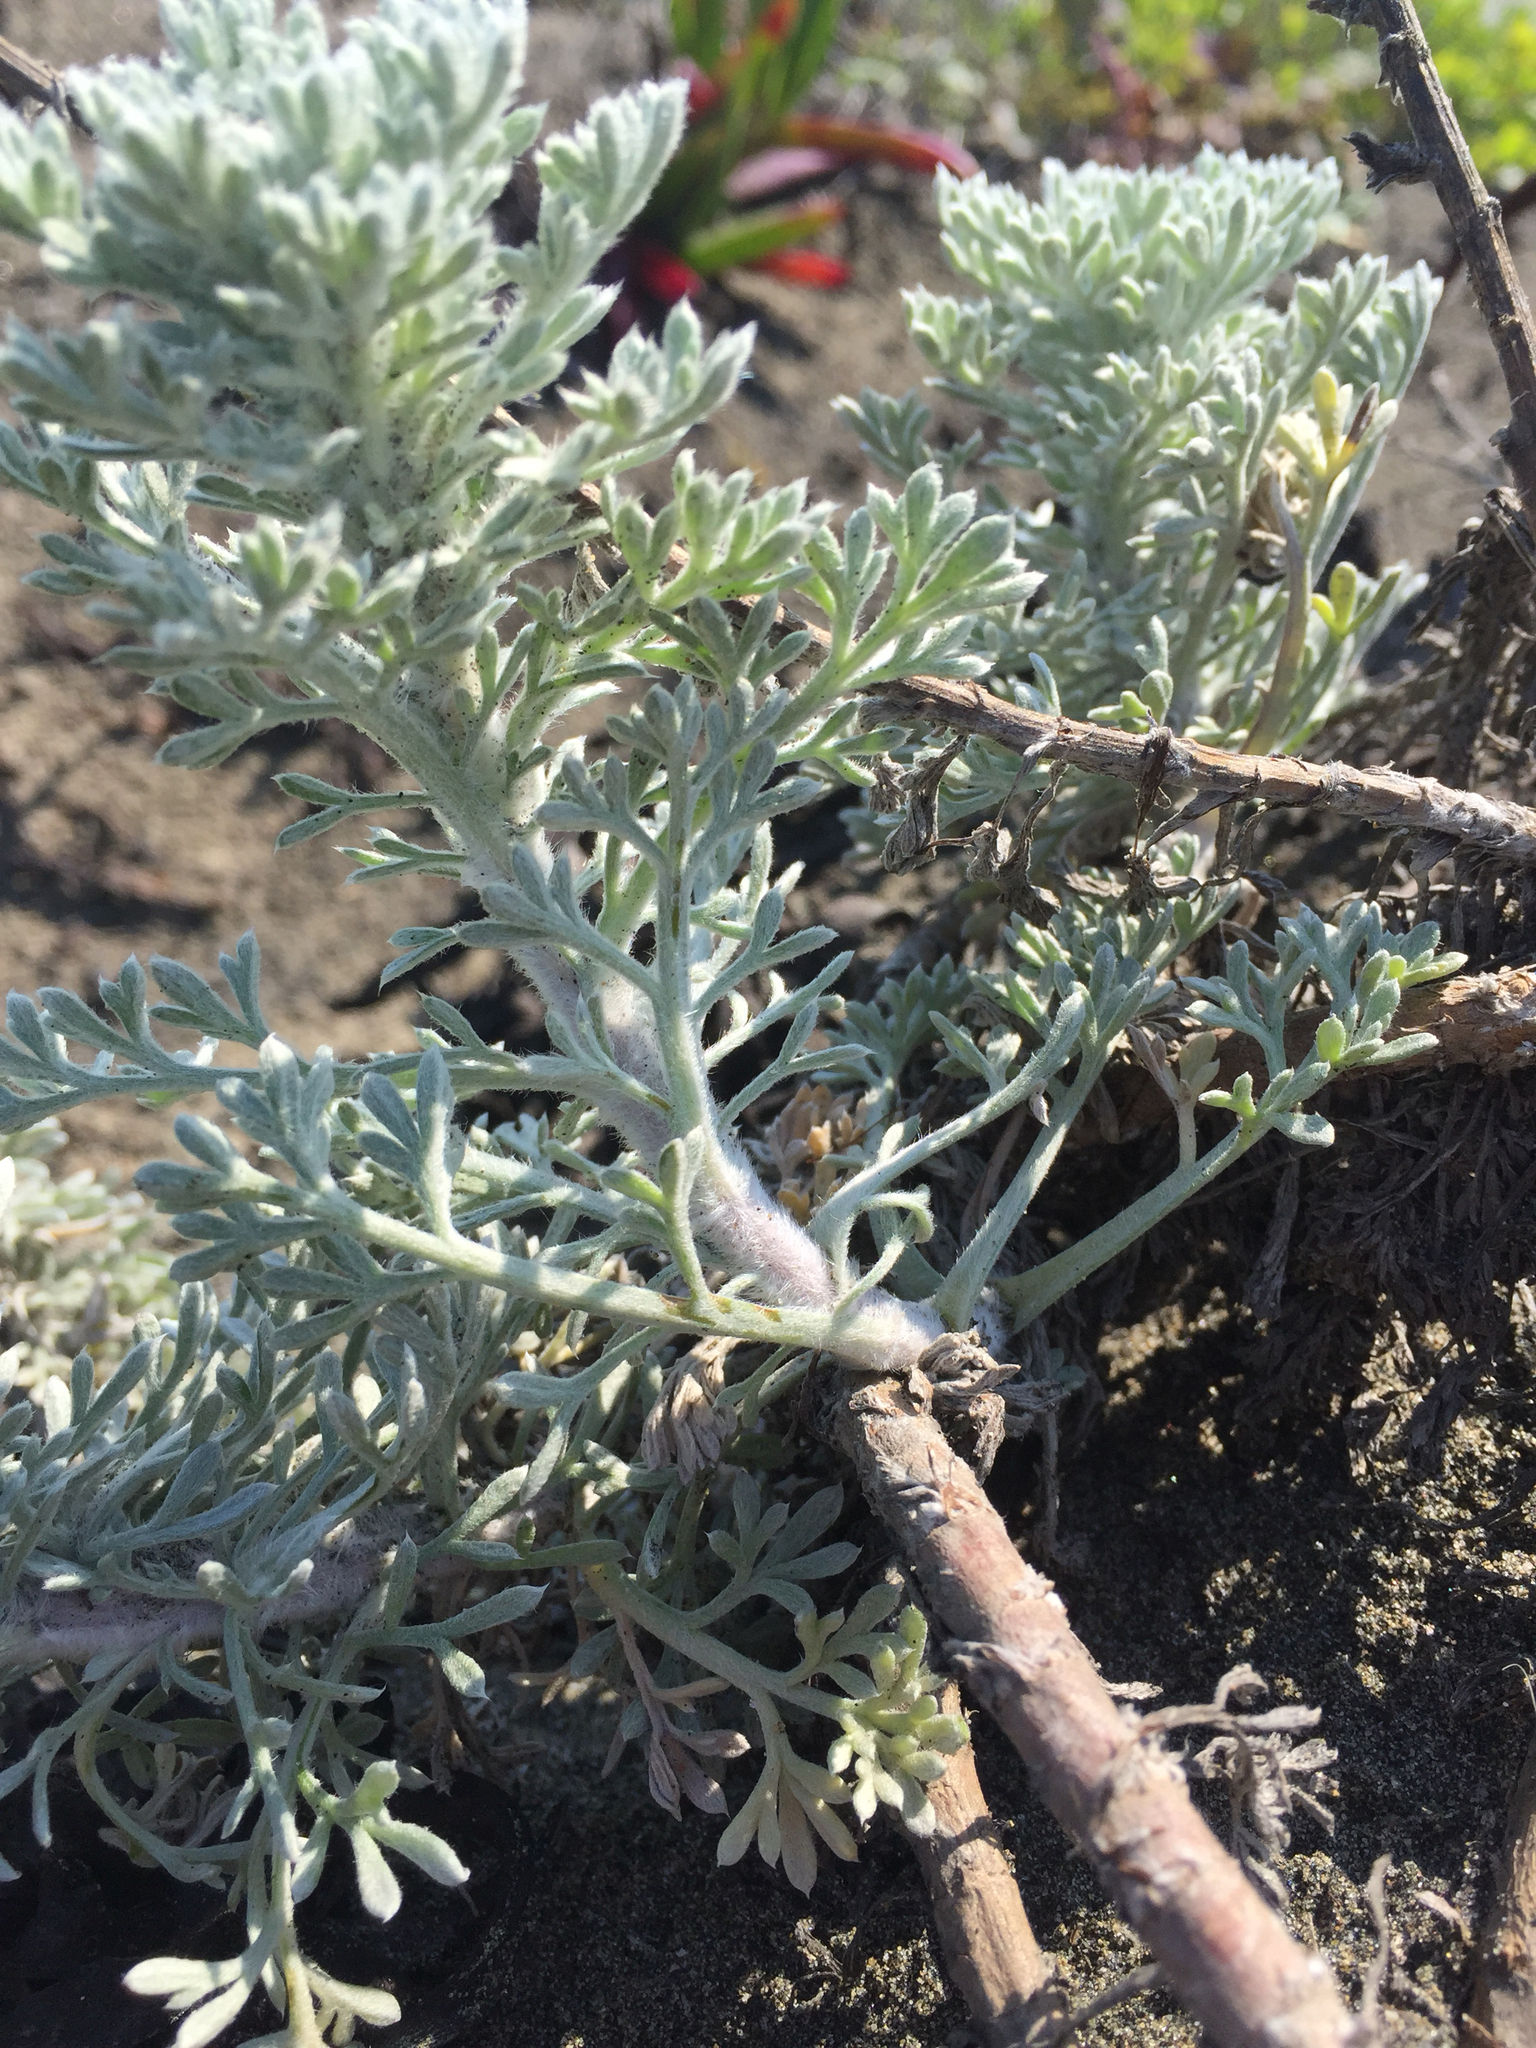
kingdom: Plantae
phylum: Tracheophyta
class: Magnoliopsida
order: Asterales
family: Asteraceae
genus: Artemisia
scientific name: Artemisia pycnocephala
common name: Coastal sagewort
